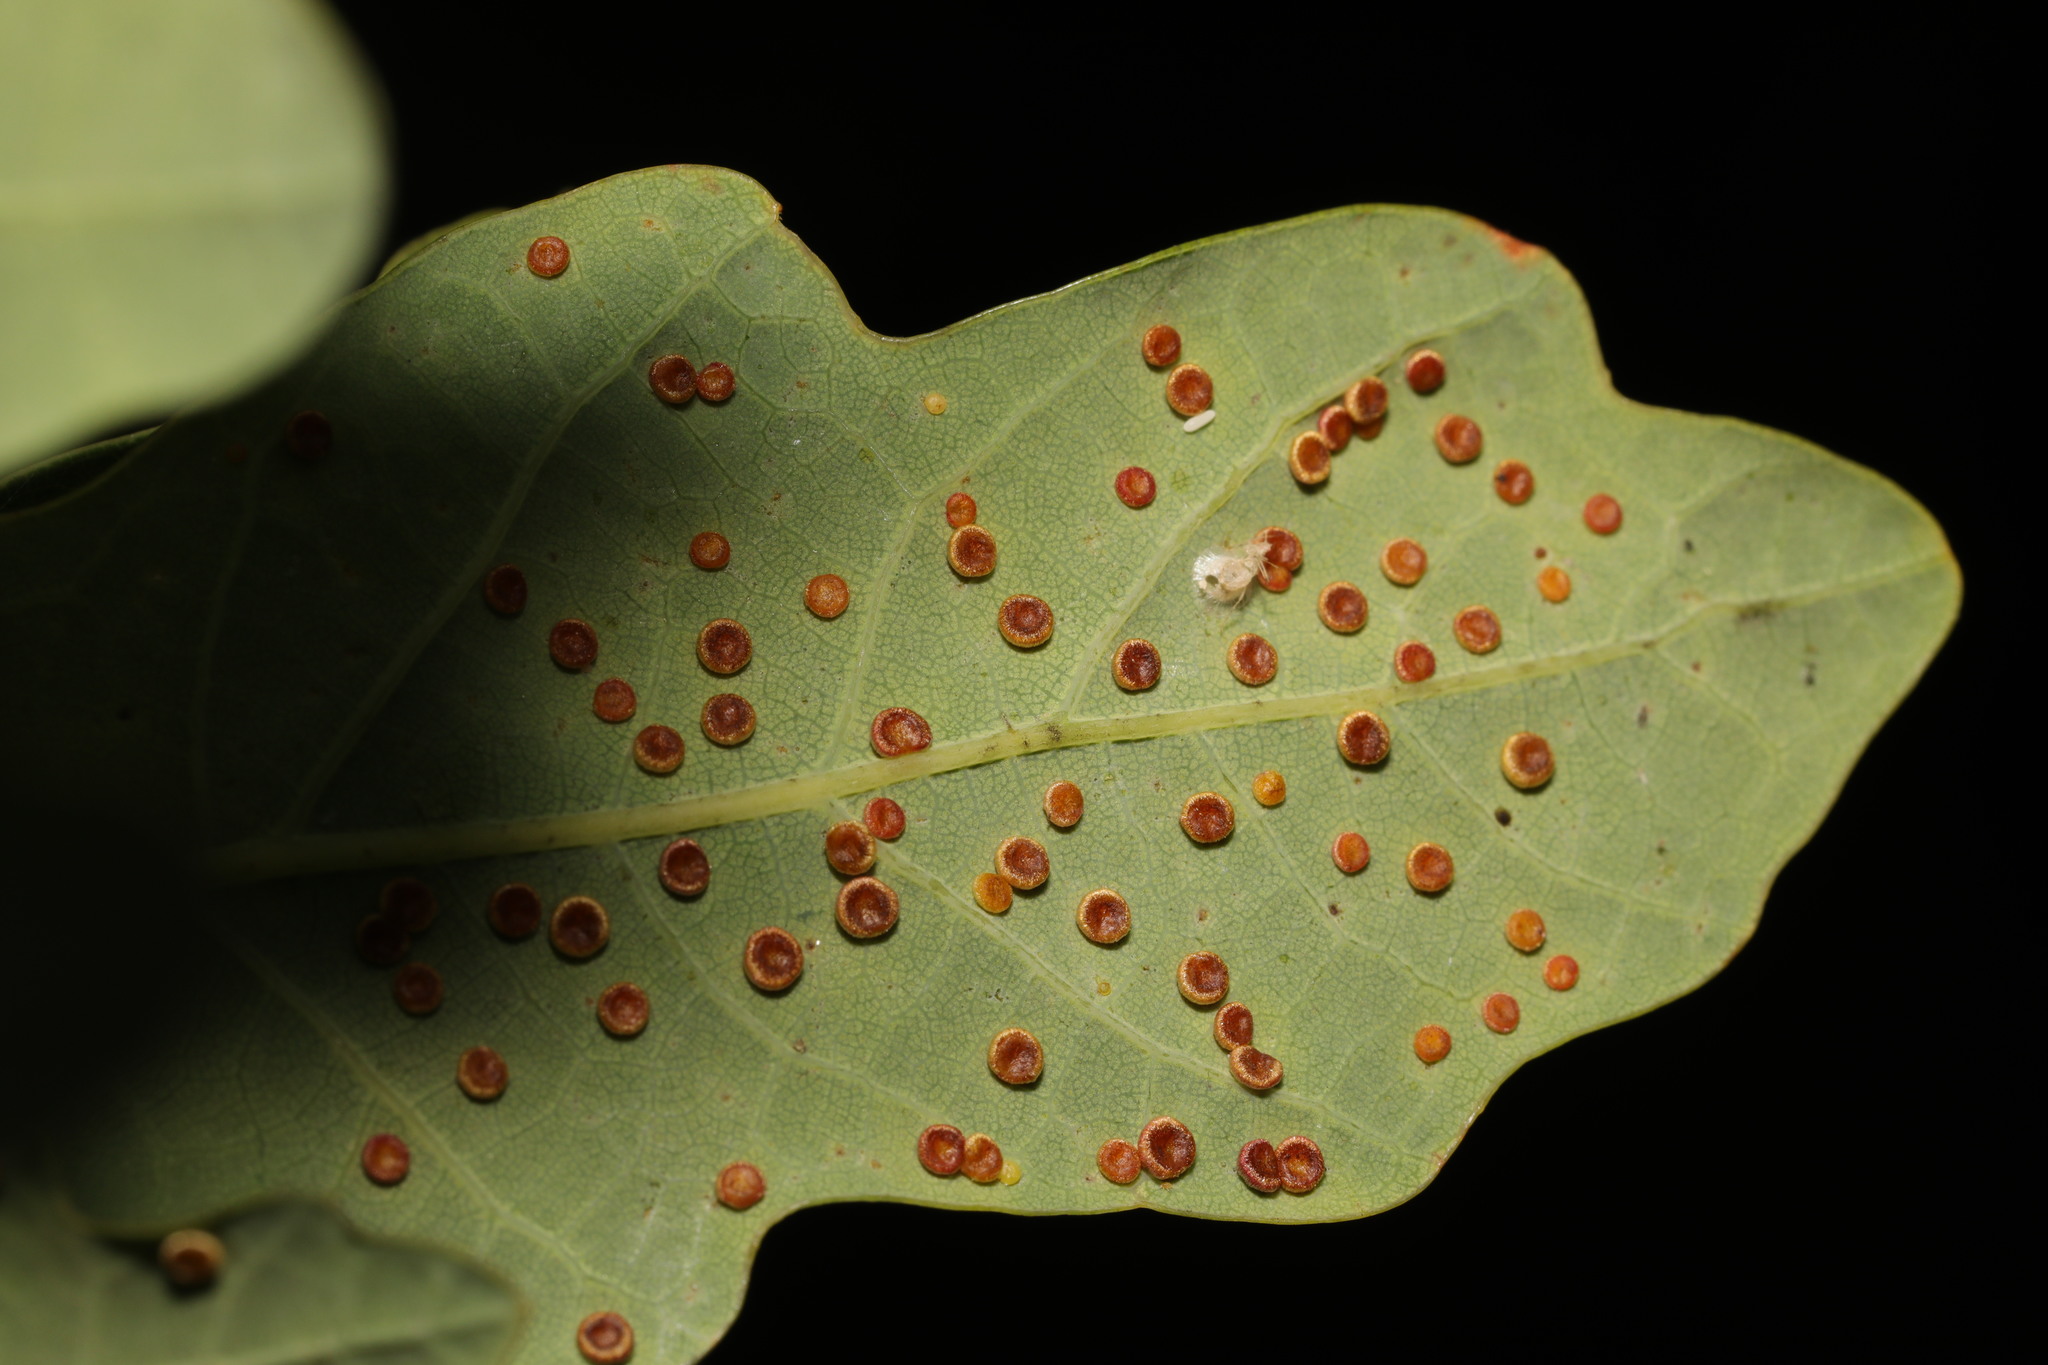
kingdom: Animalia
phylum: Arthropoda
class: Insecta
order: Hymenoptera
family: Cynipidae
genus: Neuroterus
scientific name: Neuroterus numismalis
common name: Silk-button spangle gall
